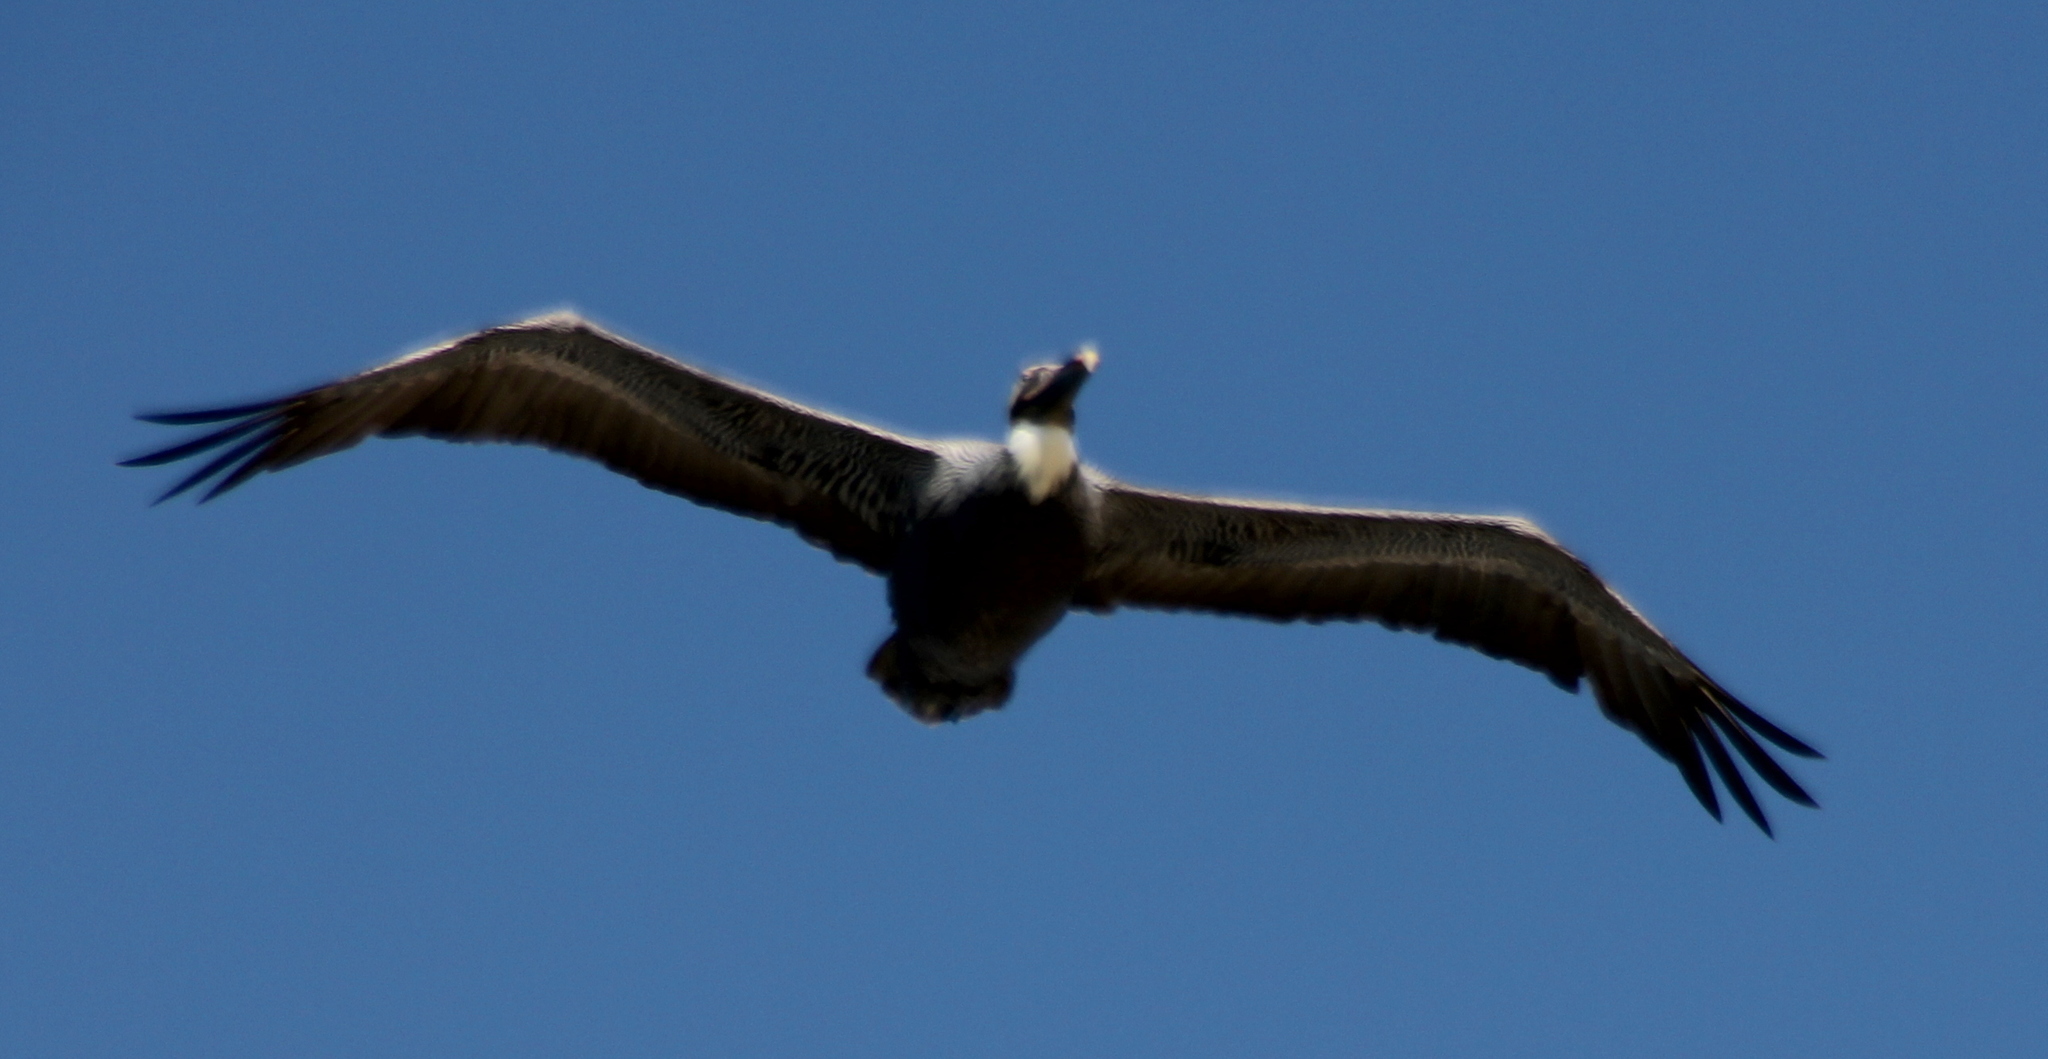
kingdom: Animalia
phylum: Chordata
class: Aves
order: Pelecaniformes
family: Pelecanidae
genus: Pelecanus
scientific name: Pelecanus occidentalis
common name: Brown pelican
